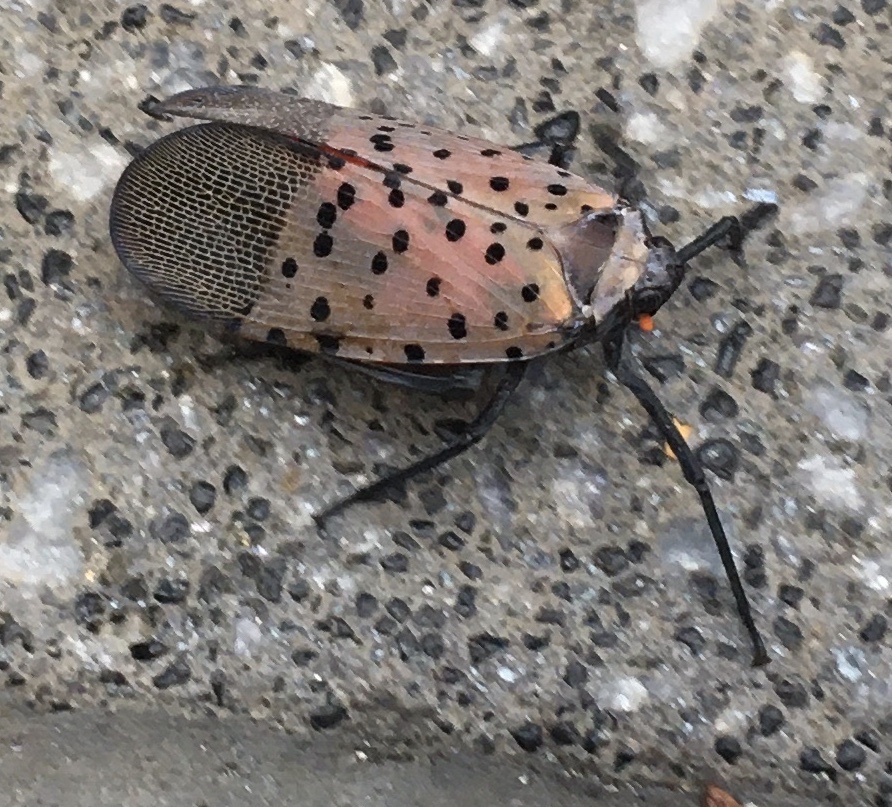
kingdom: Animalia
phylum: Arthropoda
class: Insecta
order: Hemiptera
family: Fulgoridae
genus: Lycorma
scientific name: Lycorma delicatula
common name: Spotted lanternfly
